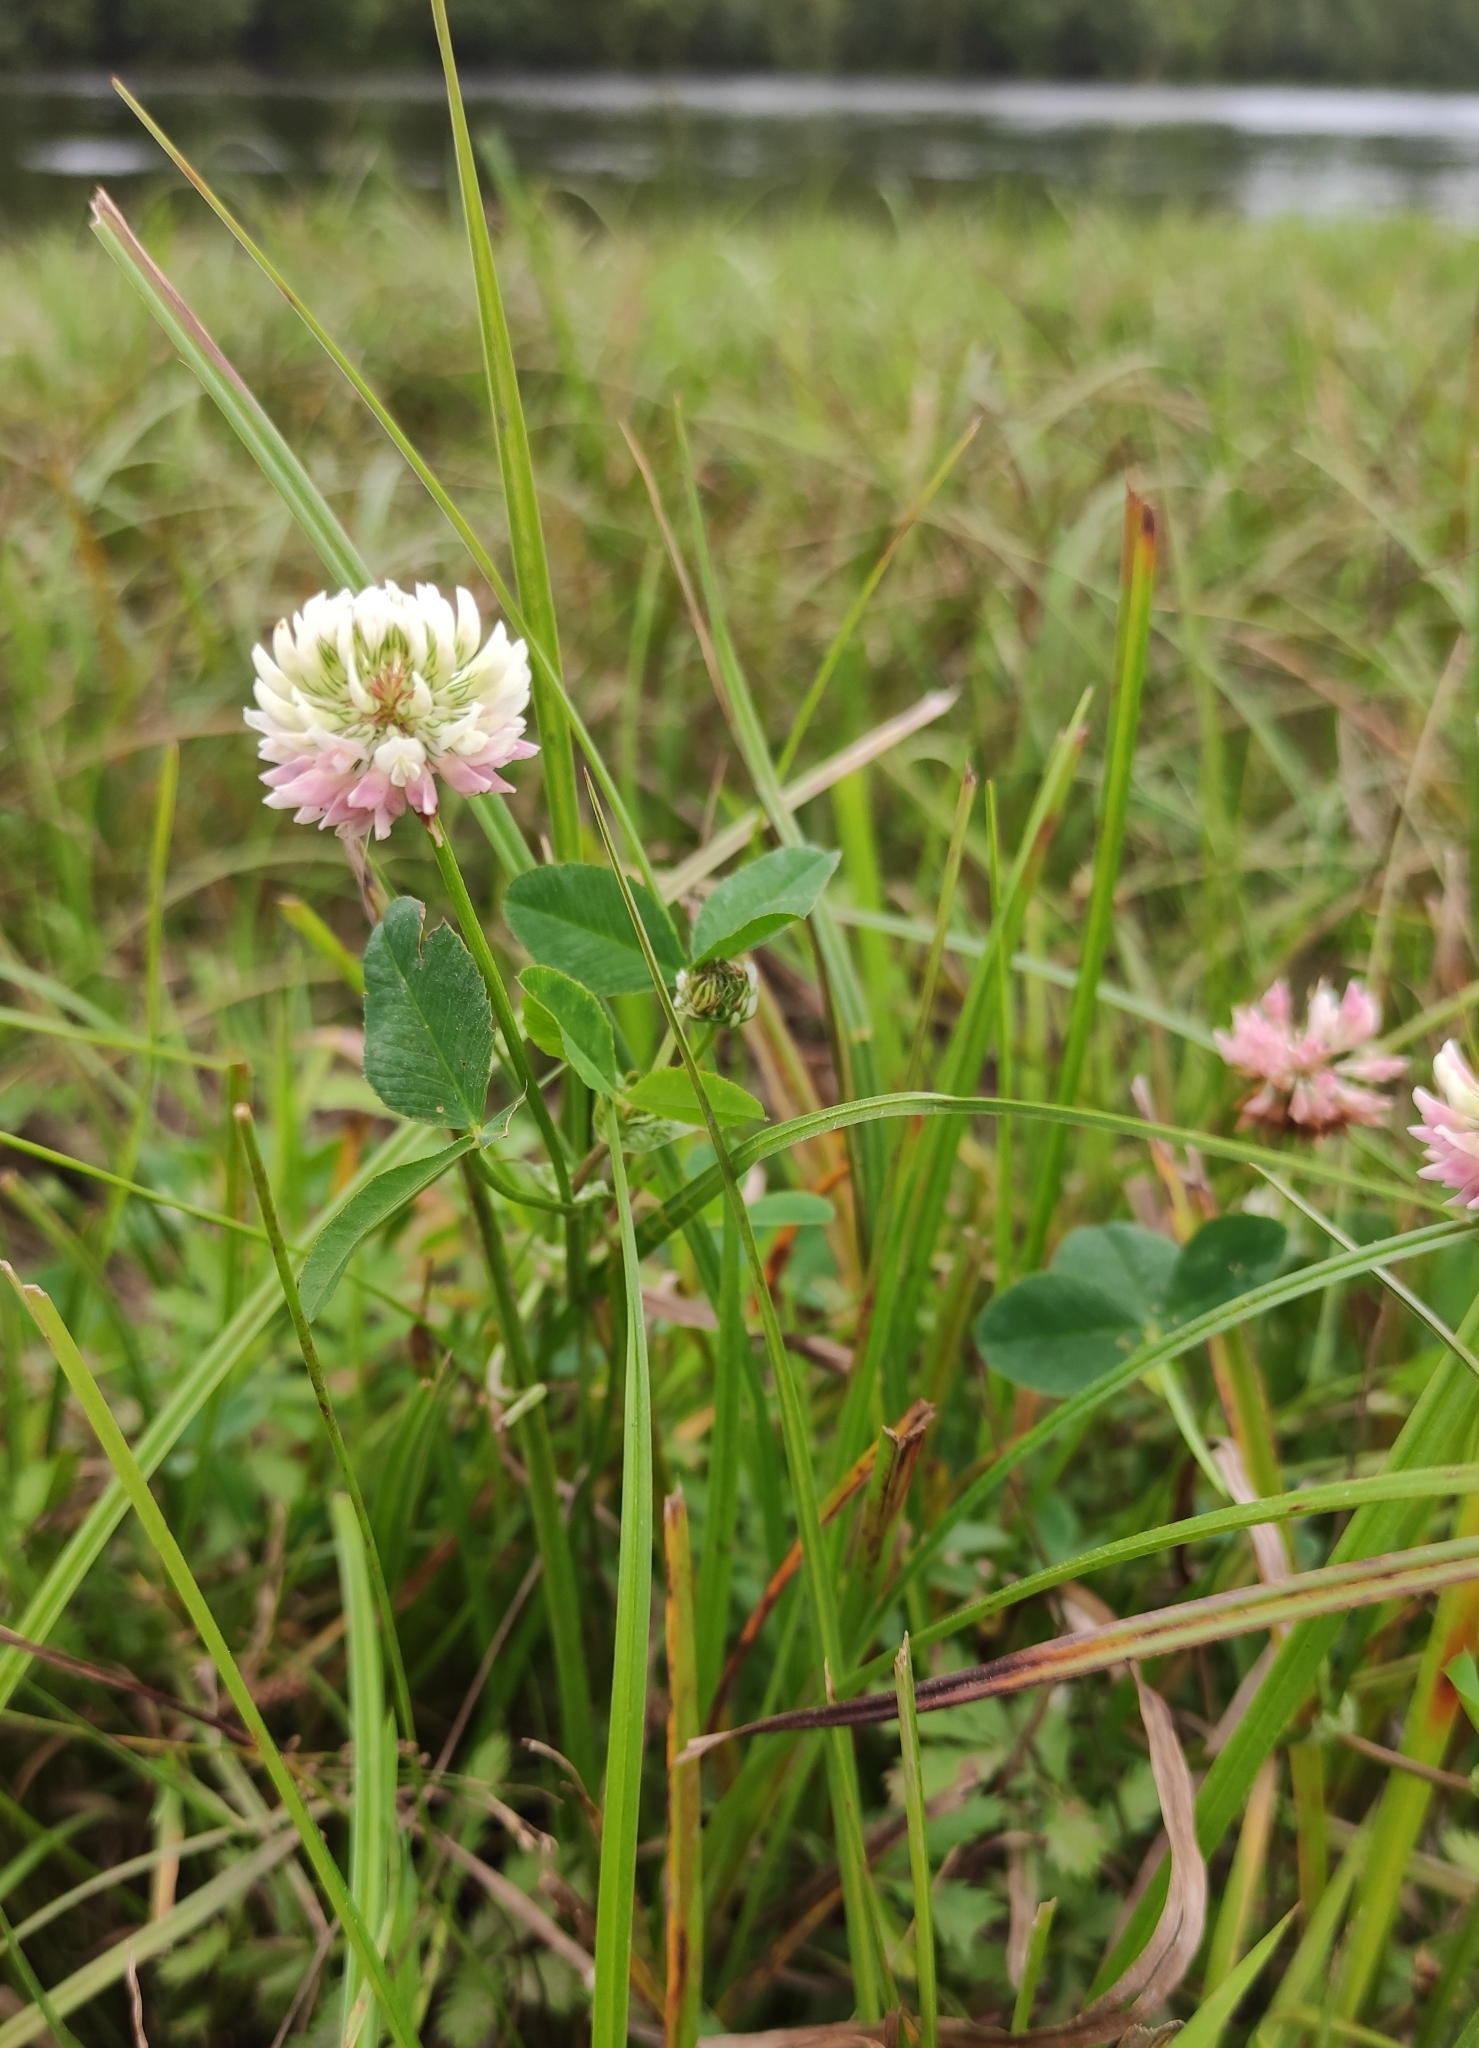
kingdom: Plantae
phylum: Tracheophyta
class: Magnoliopsida
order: Fabales
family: Fabaceae
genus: Trifolium
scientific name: Trifolium hybridum
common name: Alsike clover
